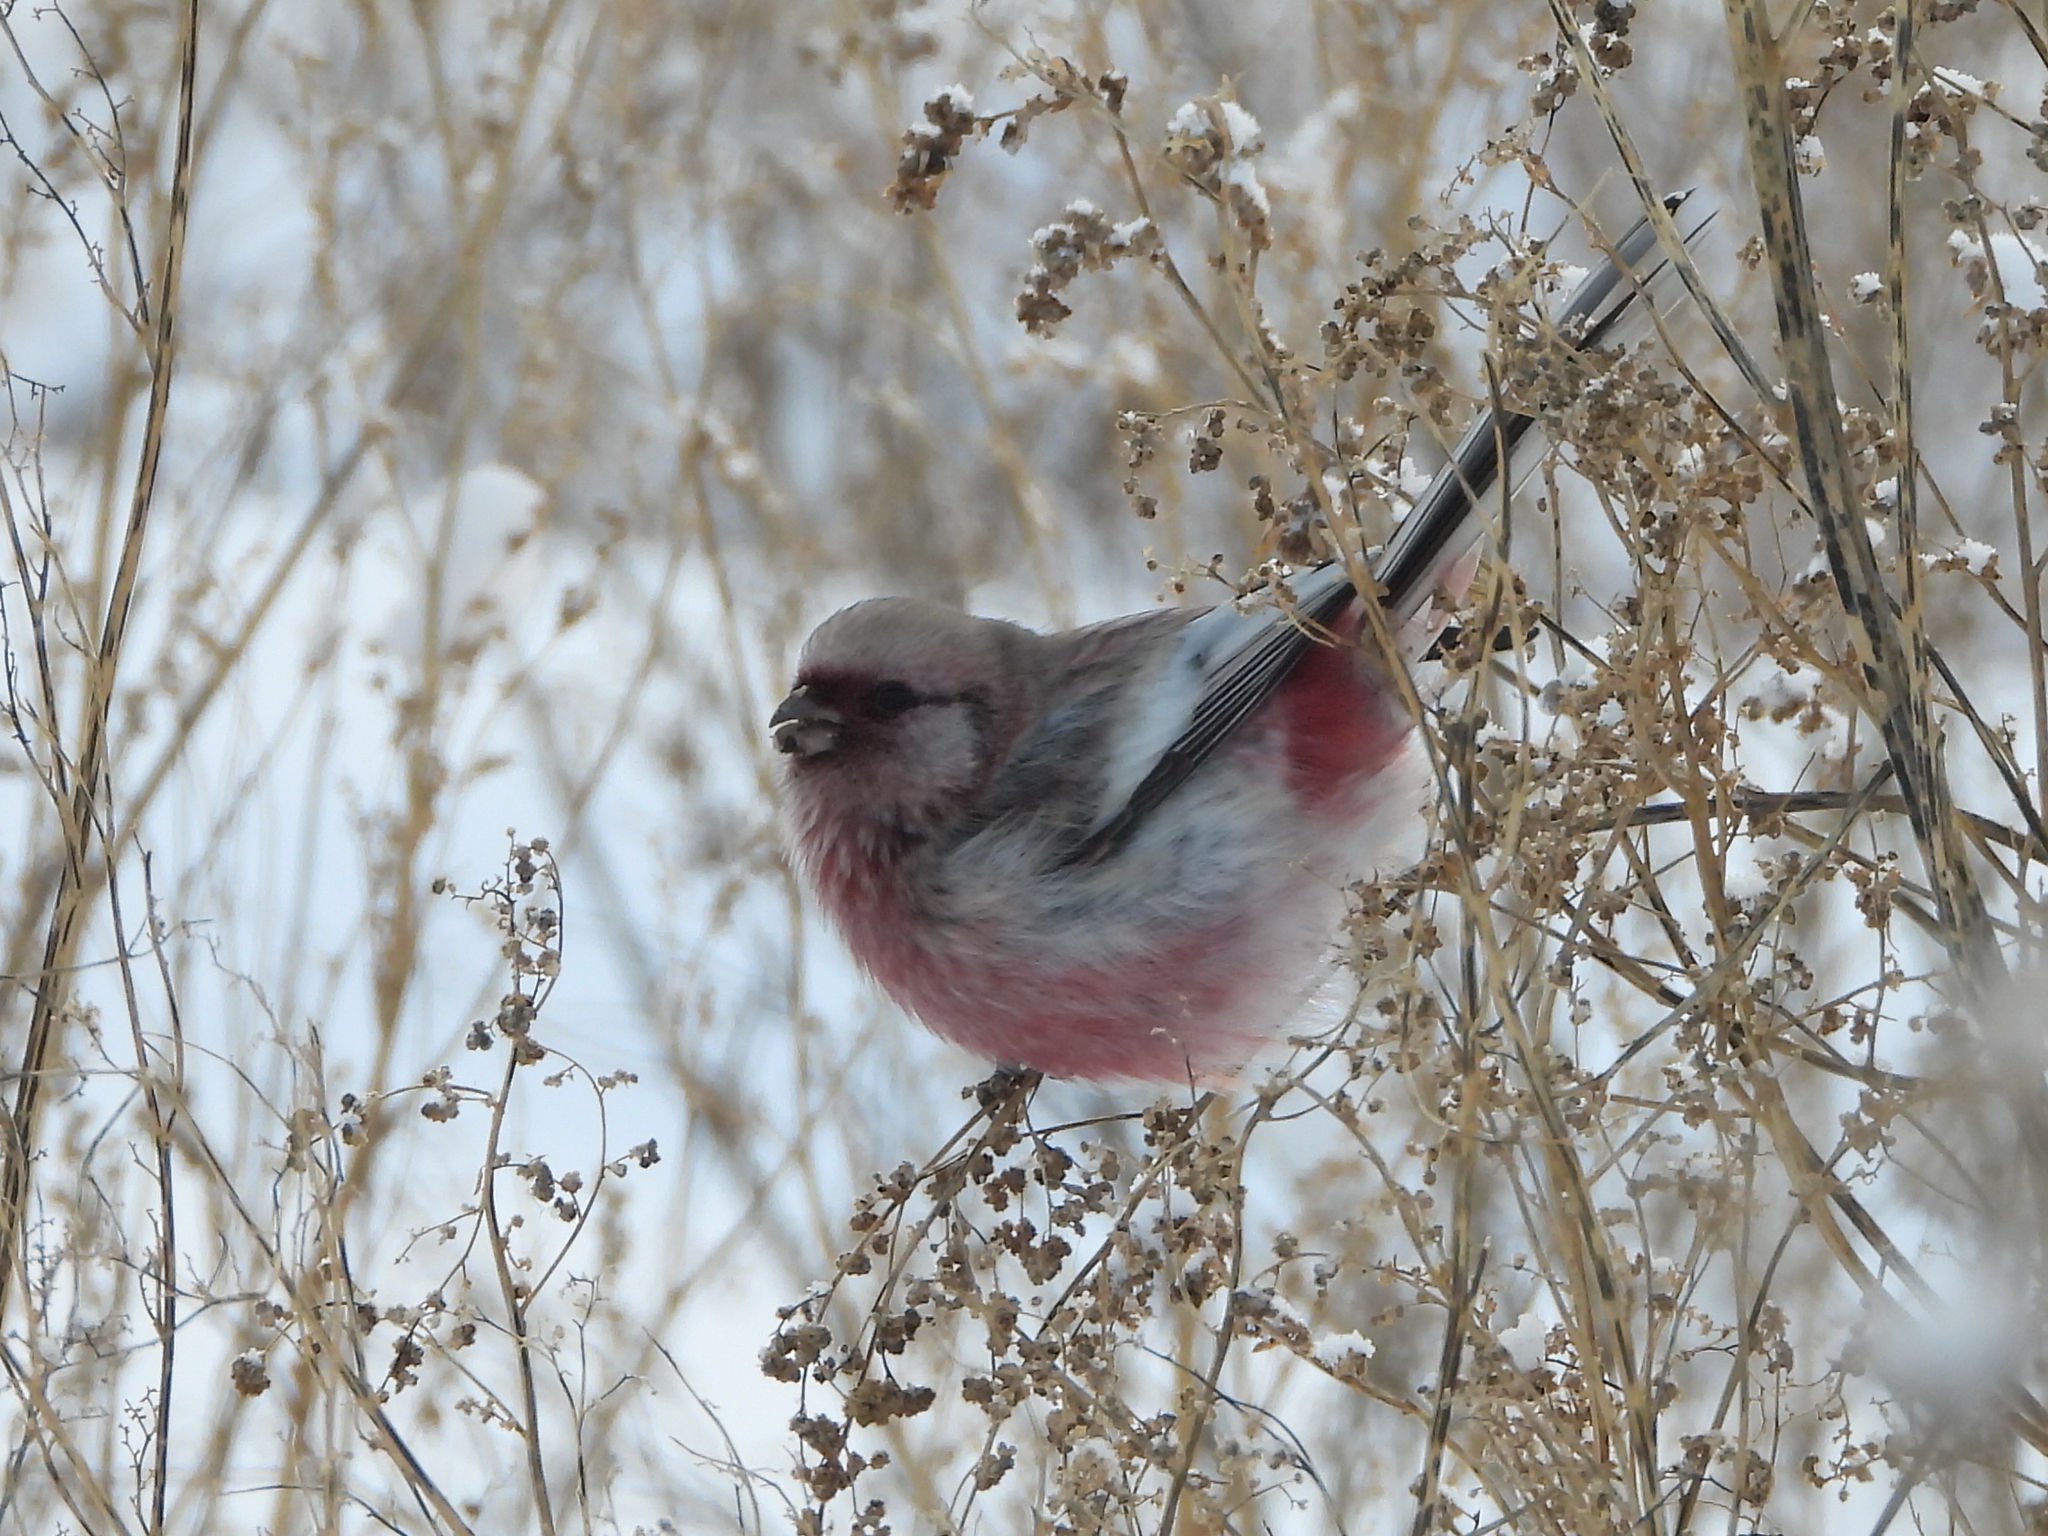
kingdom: Animalia
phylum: Chordata
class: Aves
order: Passeriformes
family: Fringillidae
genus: Carpodacus
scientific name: Carpodacus sibiricus
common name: Long-tailed rosefinch
